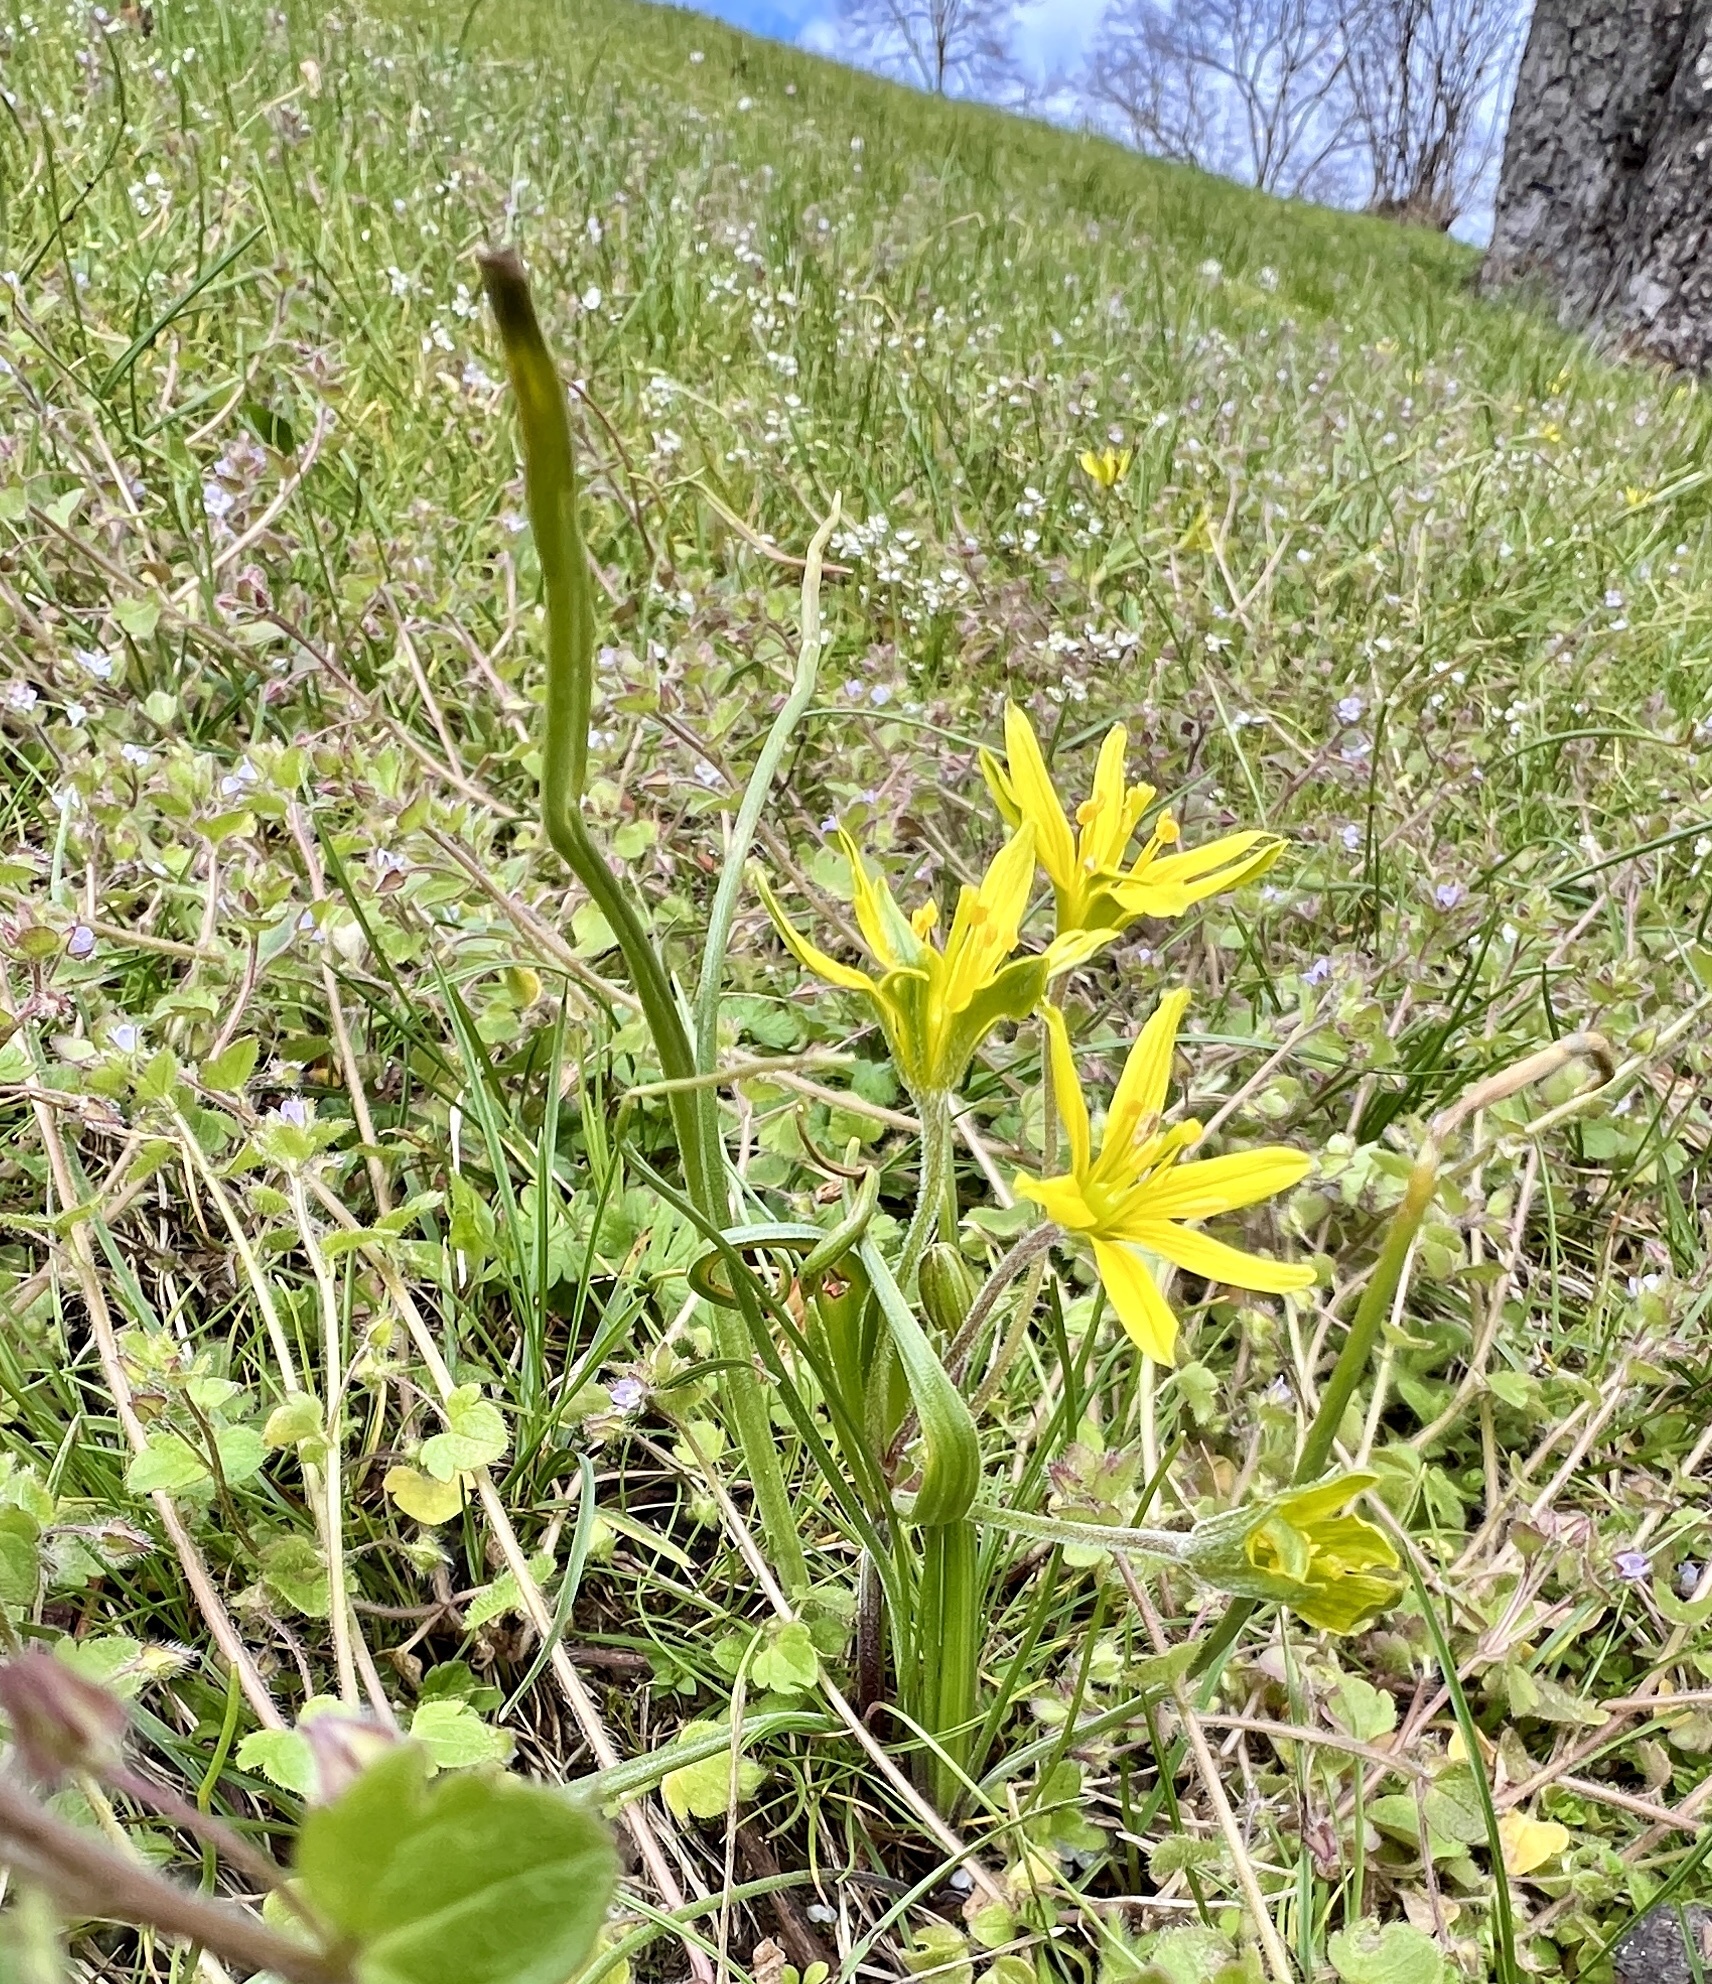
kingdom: Plantae
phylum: Tracheophyta
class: Liliopsida
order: Liliales
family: Liliaceae
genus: Gagea
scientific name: Gagea villosa
